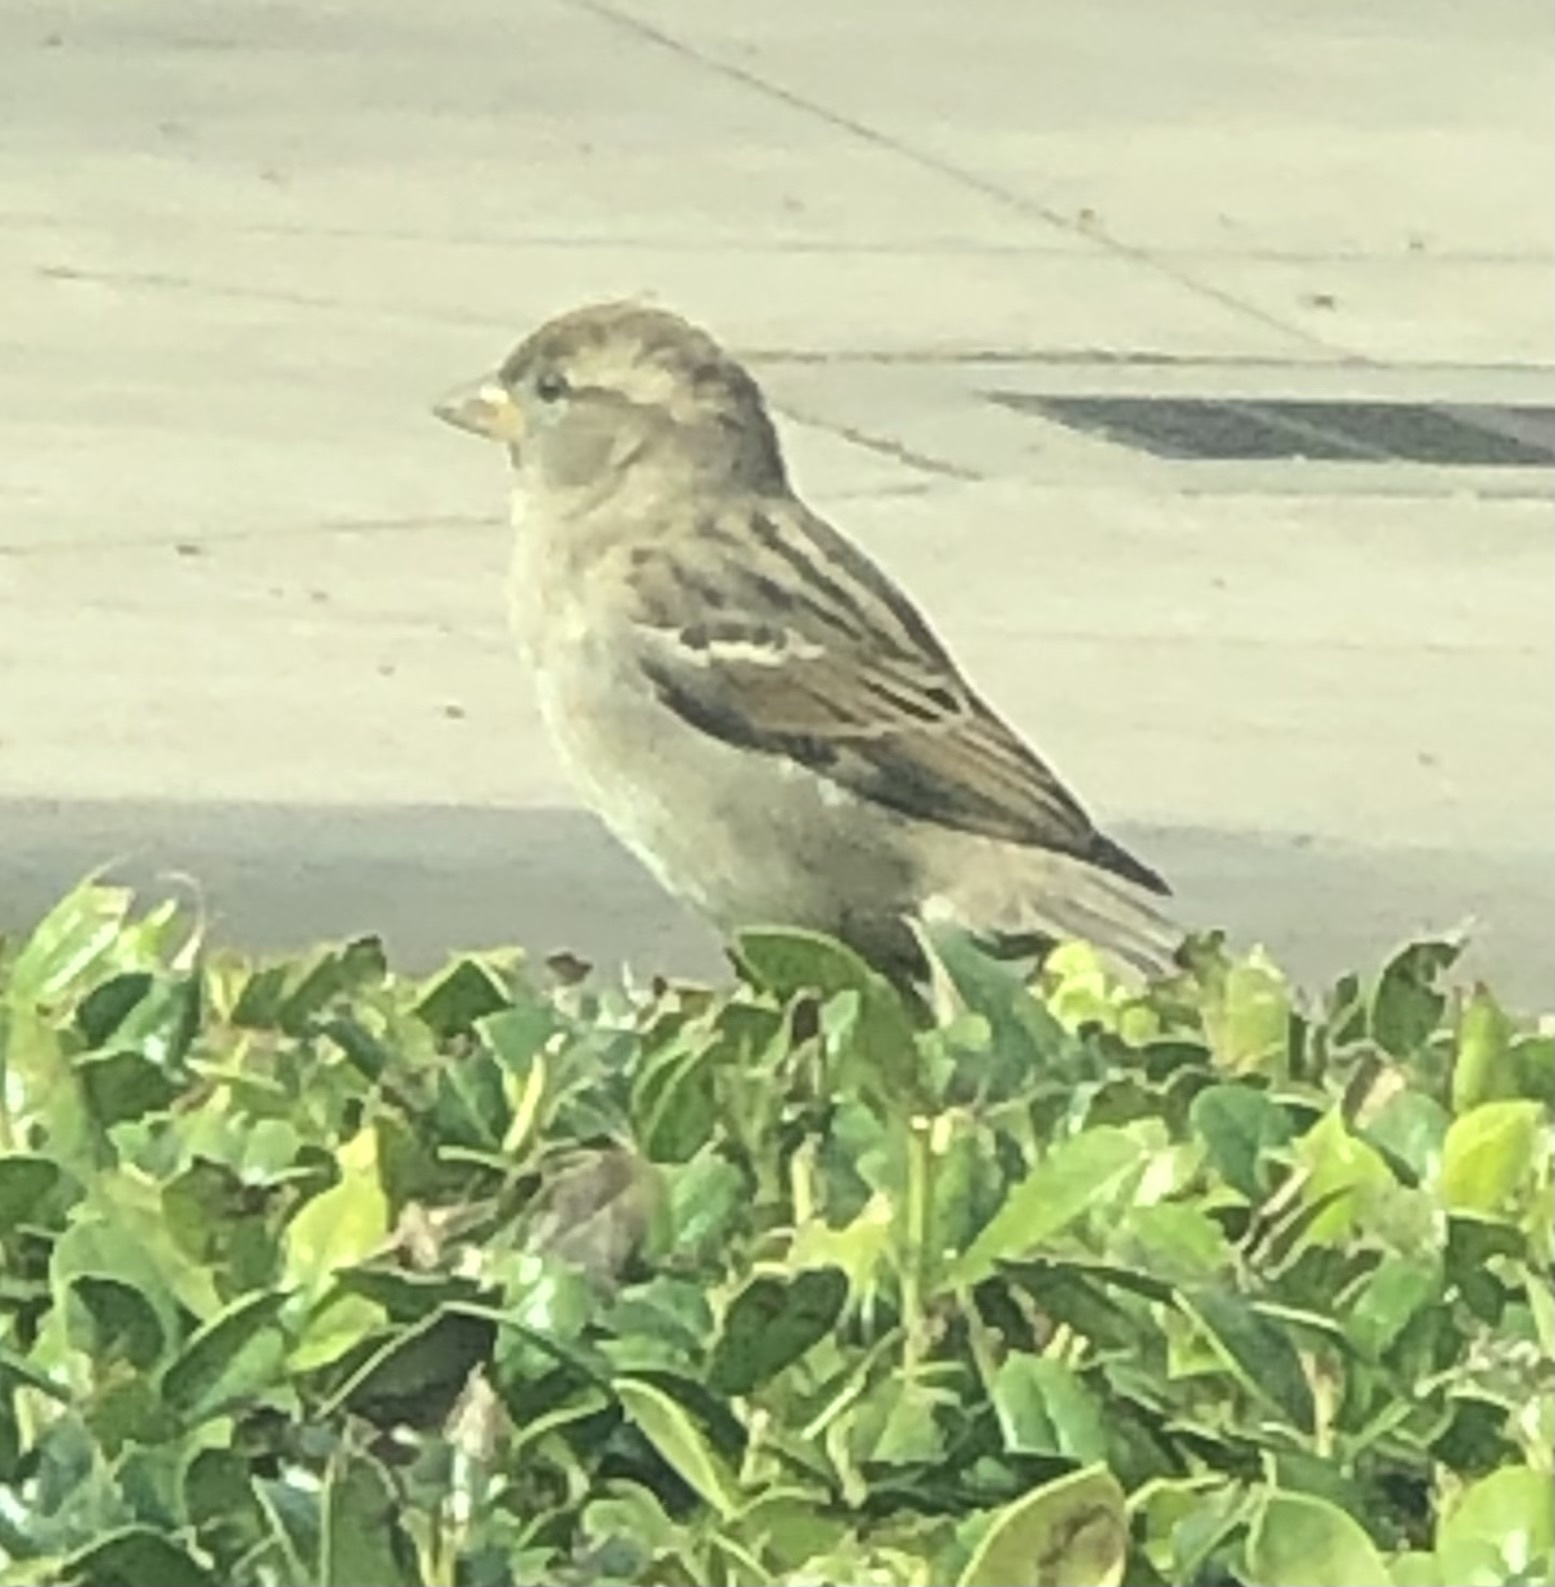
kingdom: Animalia
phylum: Chordata
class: Aves
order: Passeriformes
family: Passeridae
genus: Passer
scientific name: Passer domesticus
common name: House sparrow
